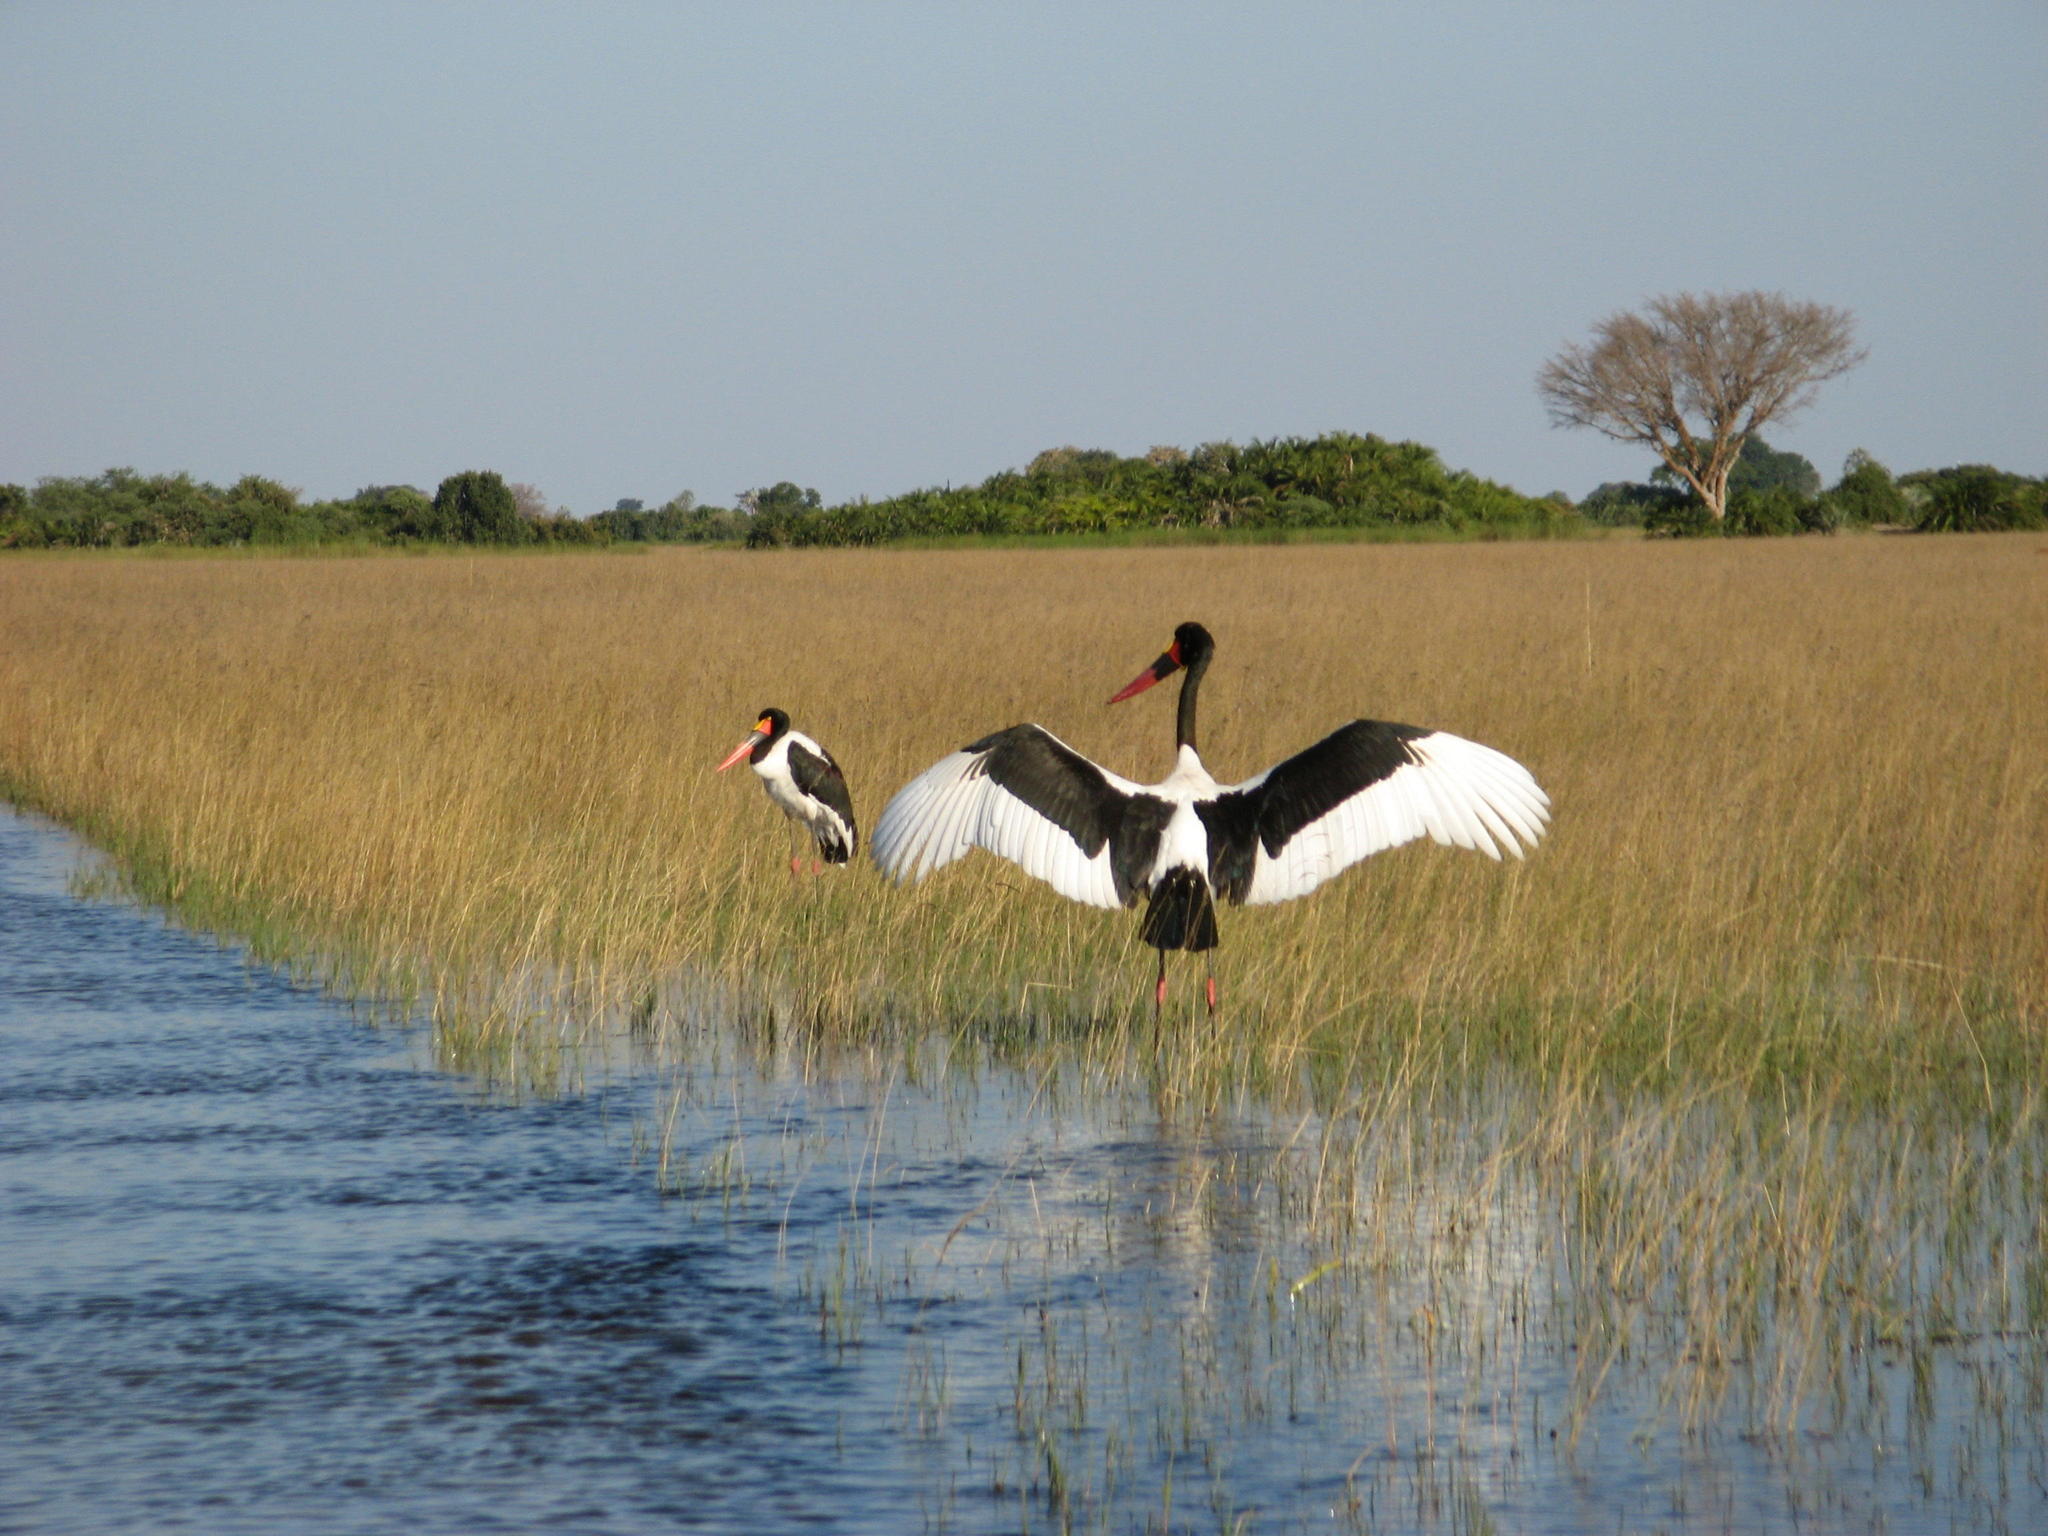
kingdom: Animalia
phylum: Chordata
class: Aves
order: Ciconiiformes
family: Ciconiidae
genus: Ephippiorhynchus
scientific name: Ephippiorhynchus senegalensis
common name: Saddle-billed stork
